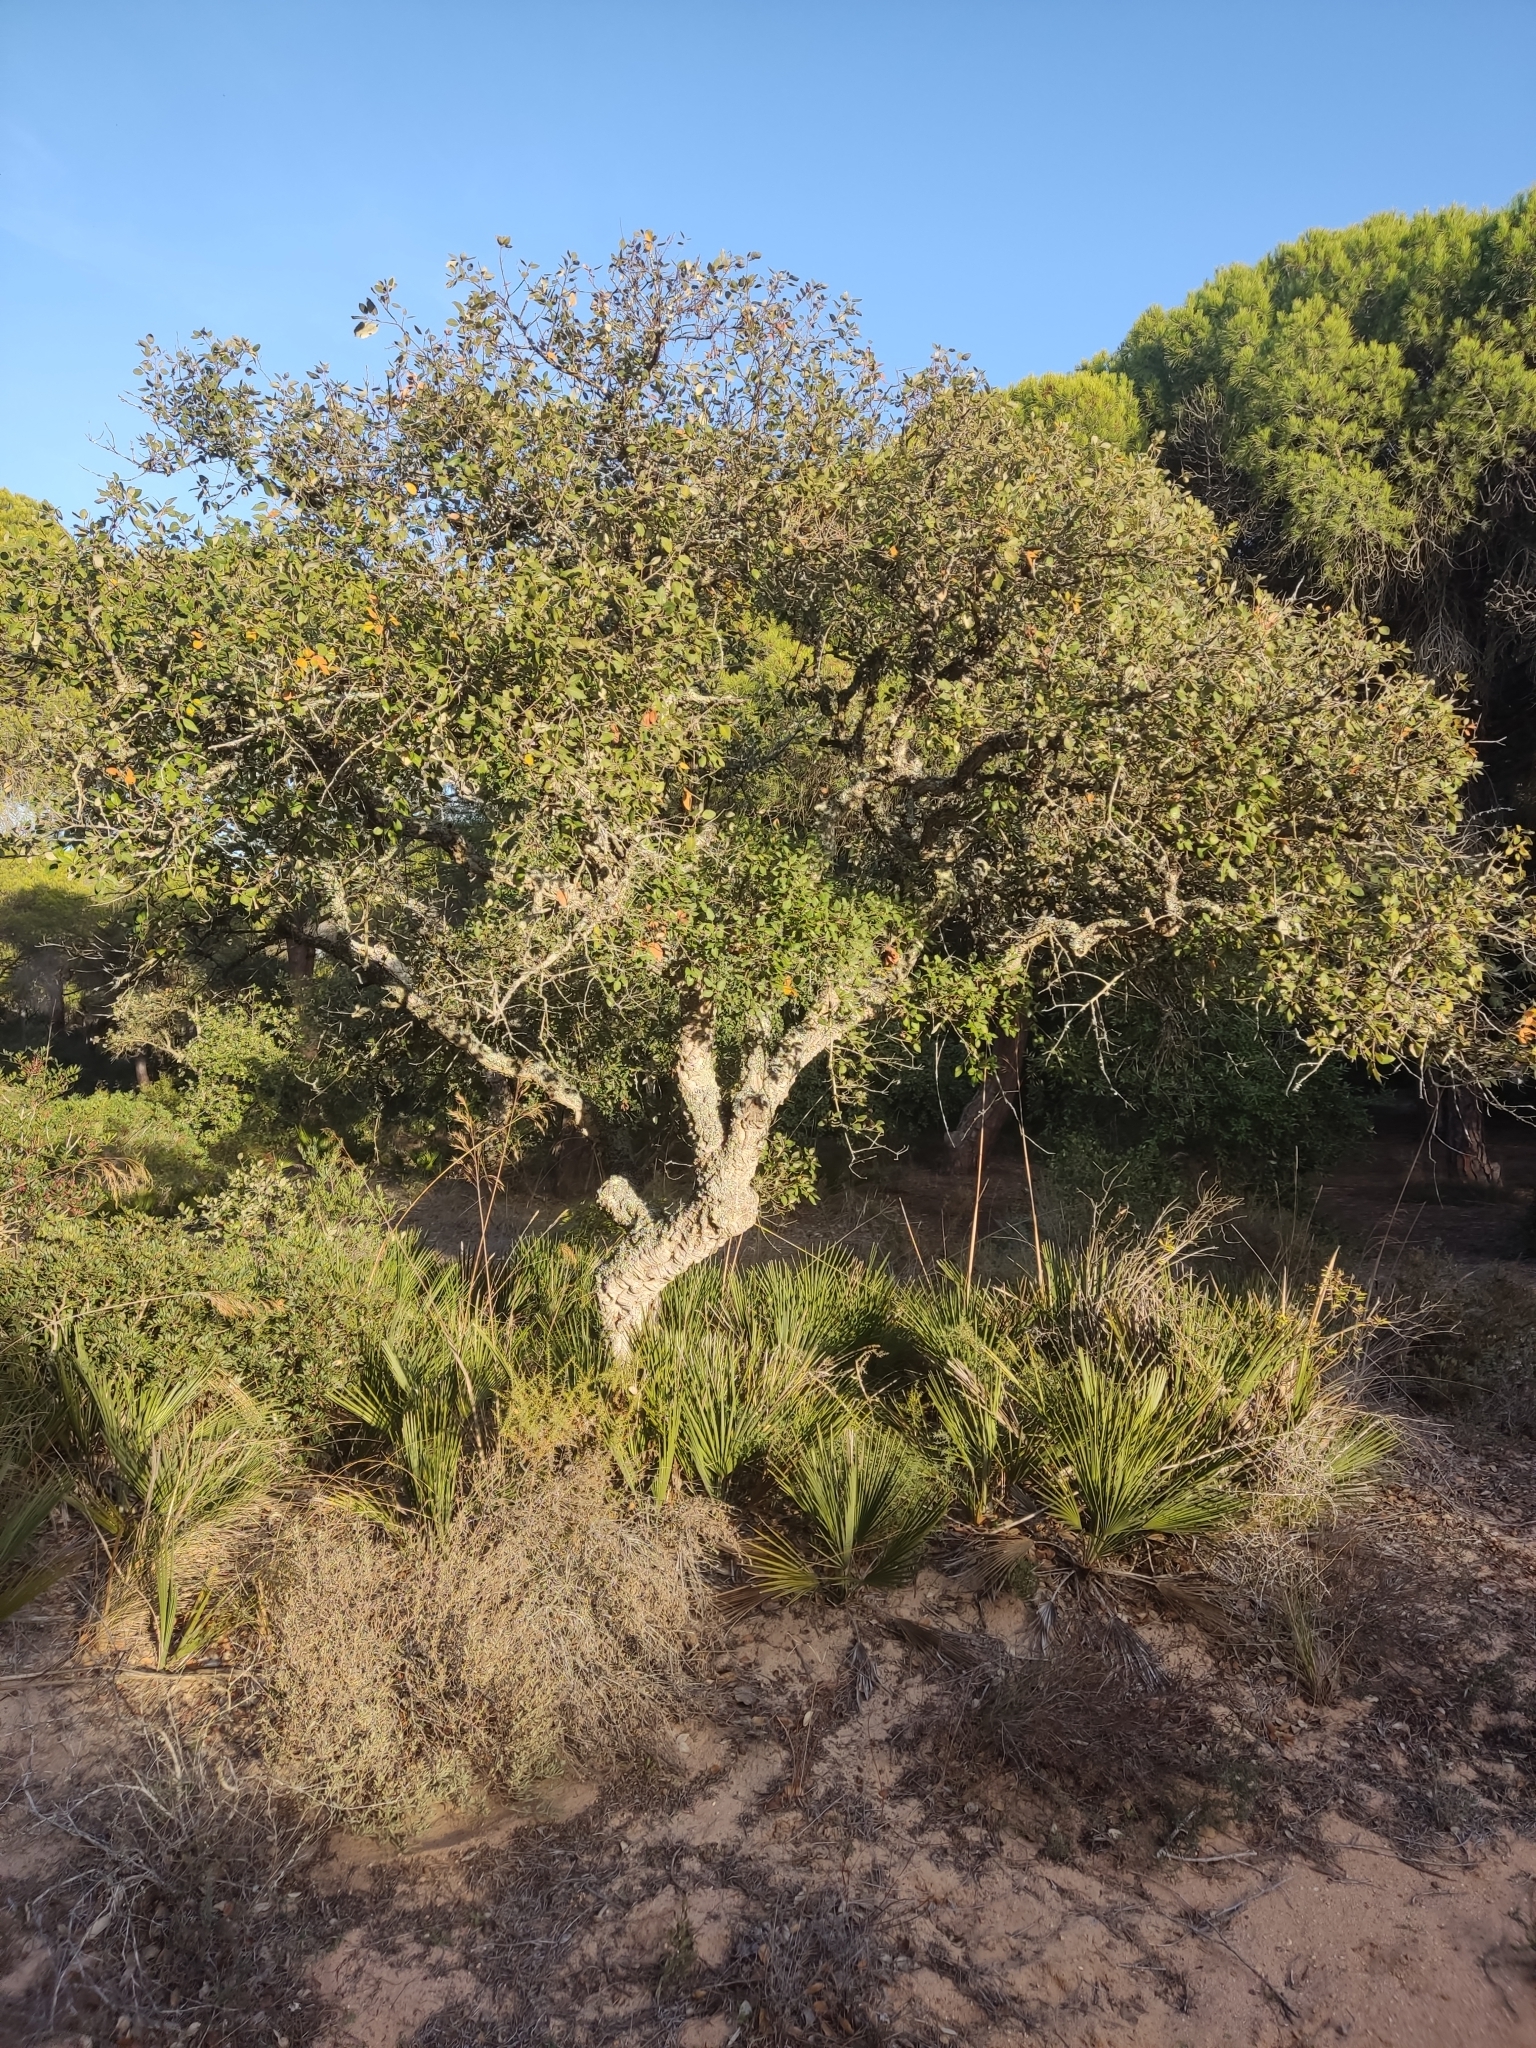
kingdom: Plantae
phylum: Tracheophyta
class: Magnoliopsida
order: Fagales
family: Fagaceae
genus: Quercus
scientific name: Quercus suber
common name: Cork oak
